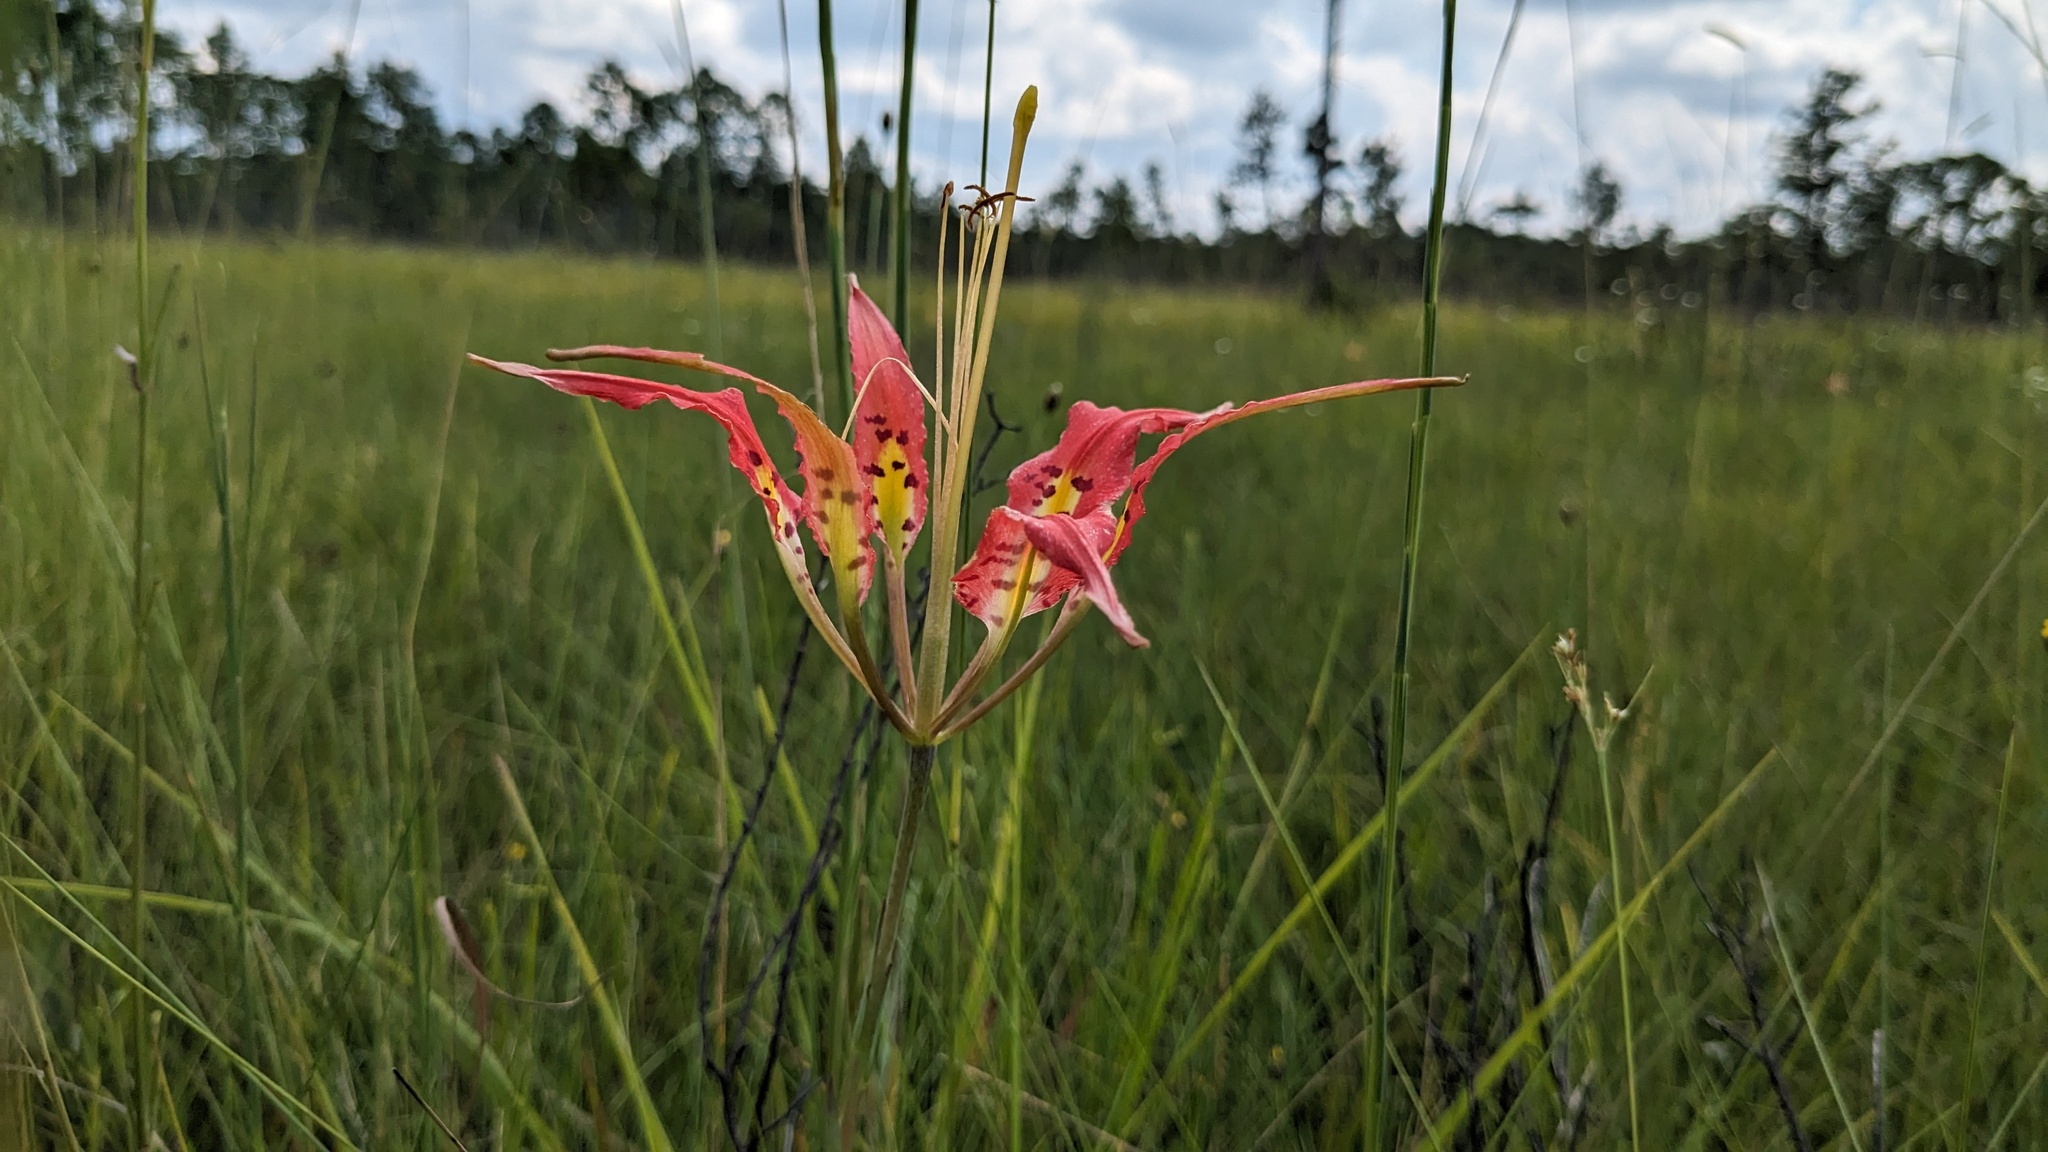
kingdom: Plantae
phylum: Tracheophyta
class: Liliopsida
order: Liliales
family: Liliaceae
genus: Lilium
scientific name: Lilium catesbaei
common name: Catesby's lily
